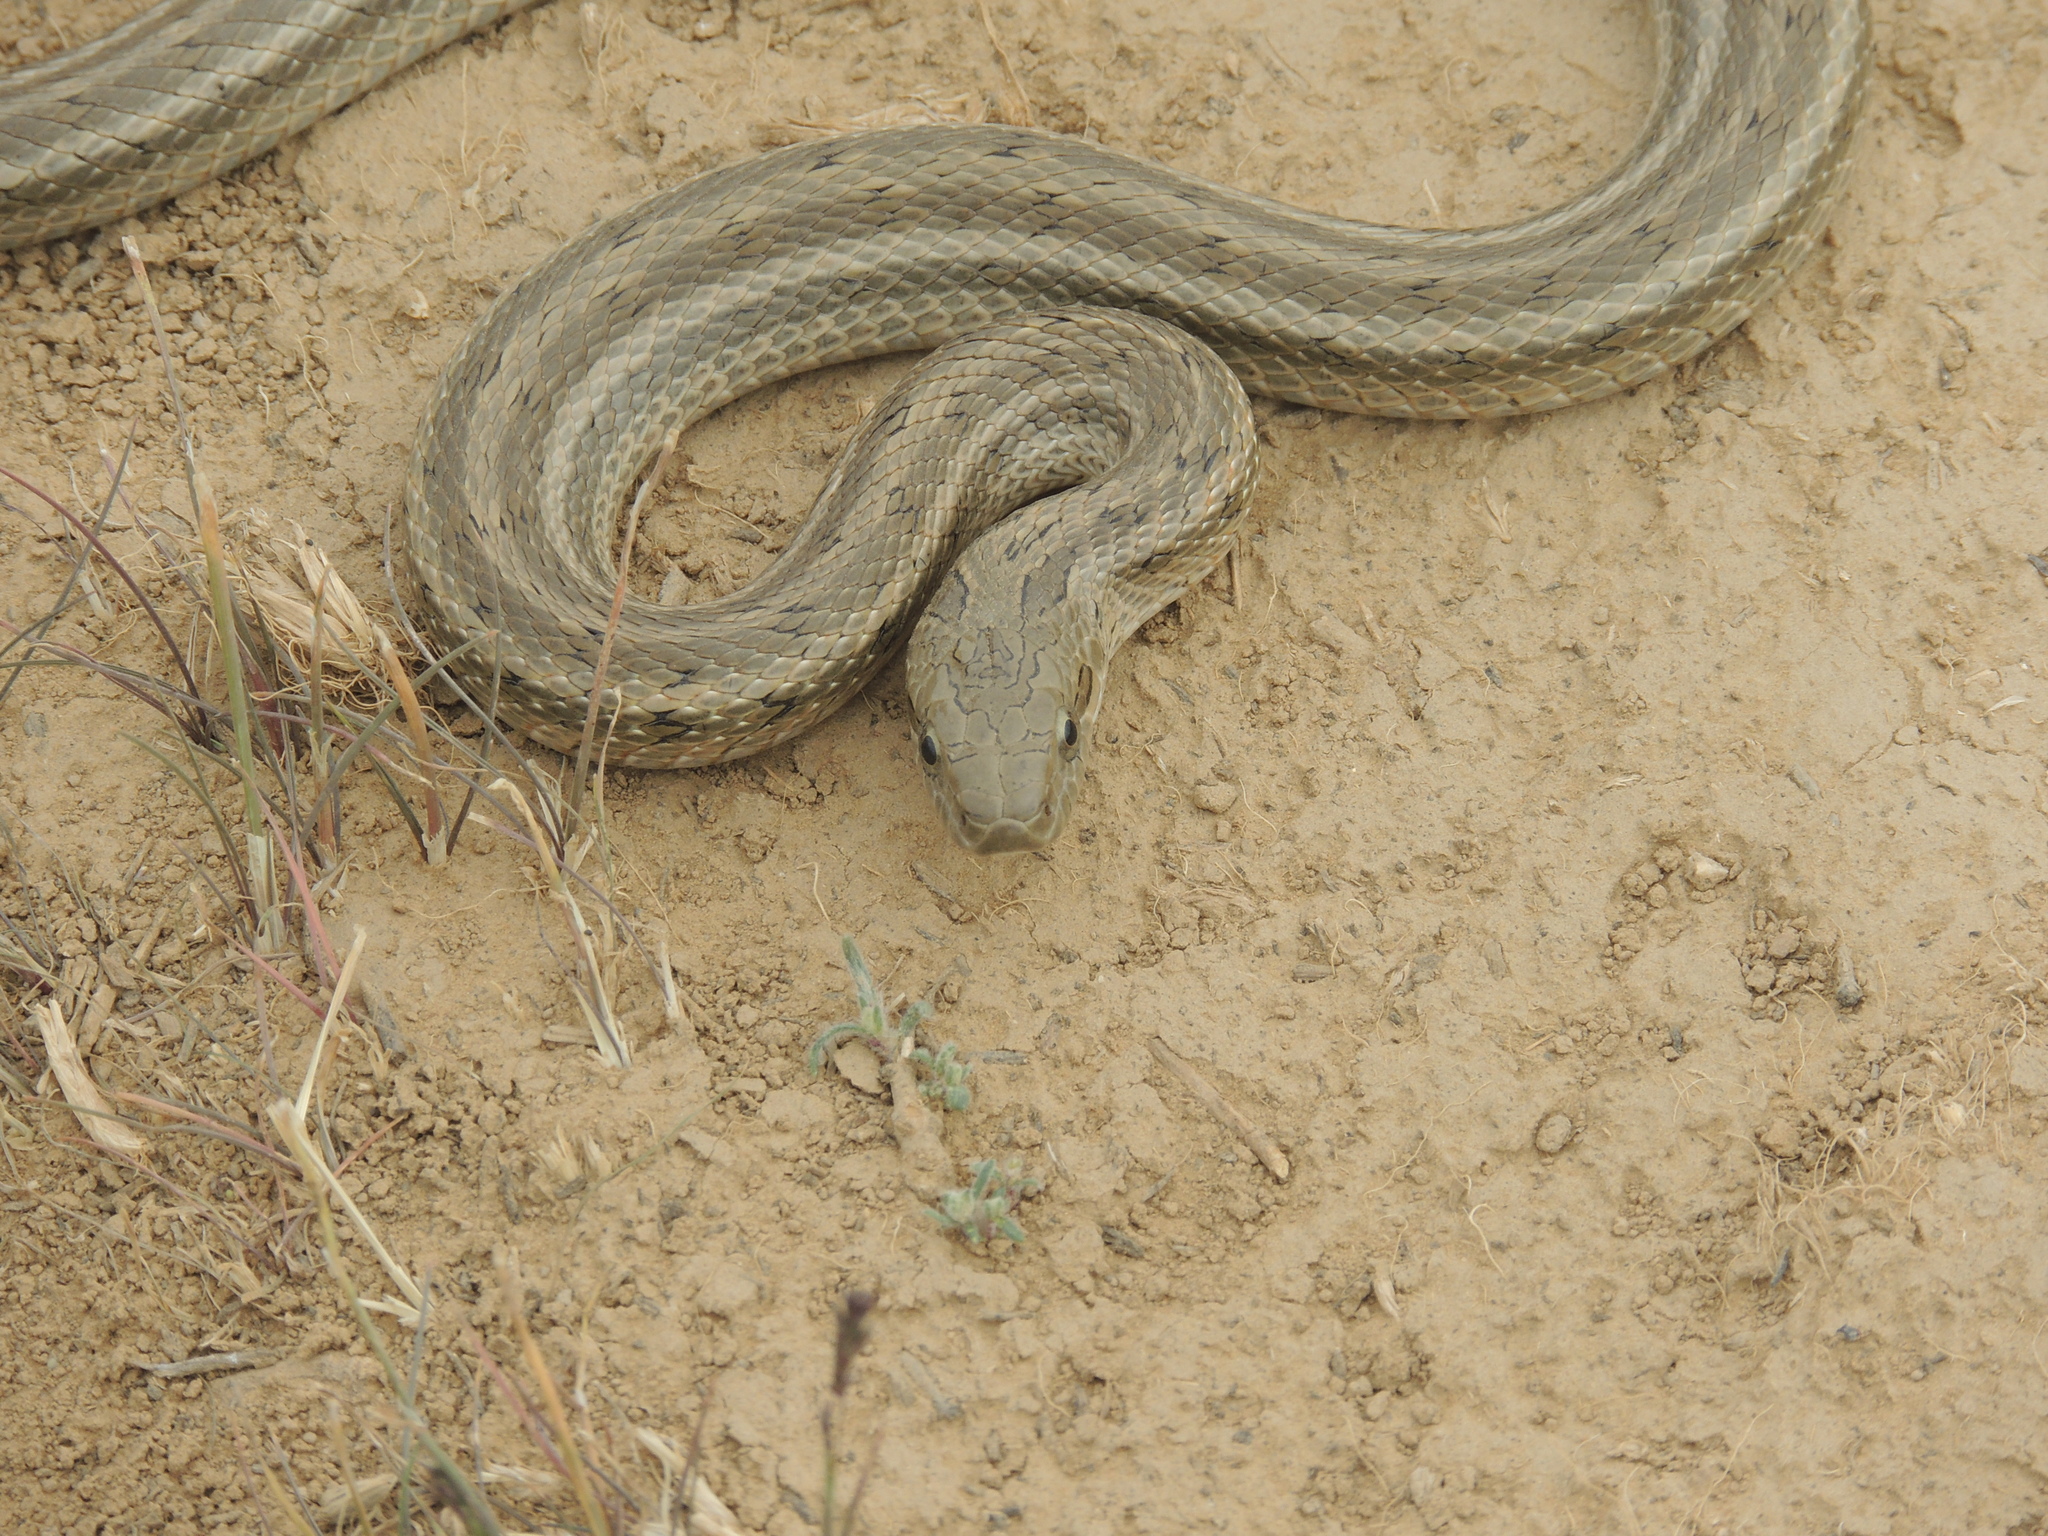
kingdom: Animalia
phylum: Chordata
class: Squamata
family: Colubridae
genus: Elaphe
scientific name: Elaphe dione
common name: Dione ratsnake
